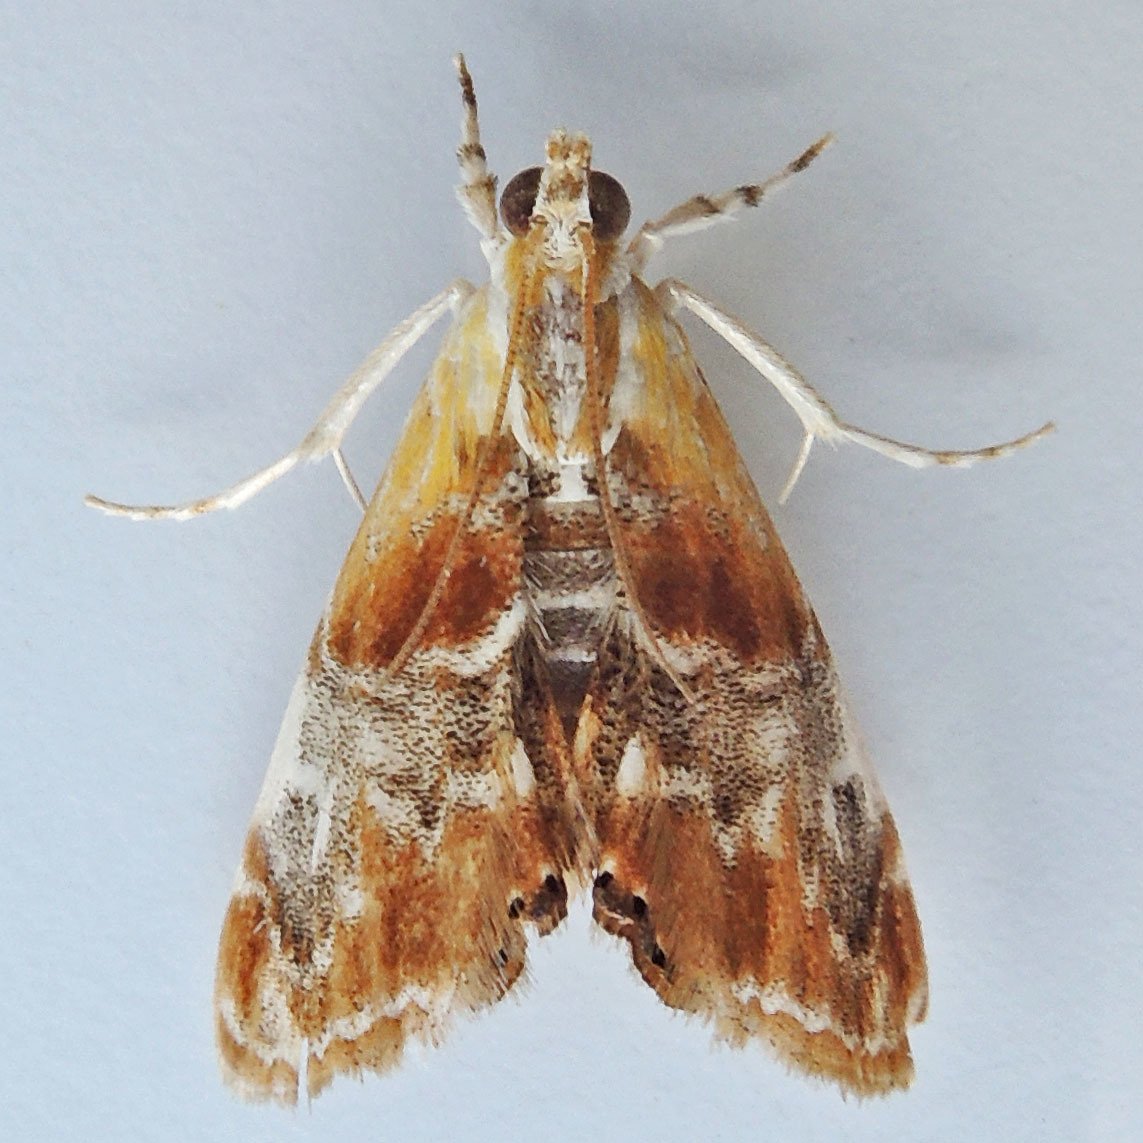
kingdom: Animalia
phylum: Arthropoda
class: Insecta
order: Lepidoptera
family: Crambidae
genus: Dicymolomia
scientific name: Dicymolomia julianalis
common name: Julia's dicymolomia moth
